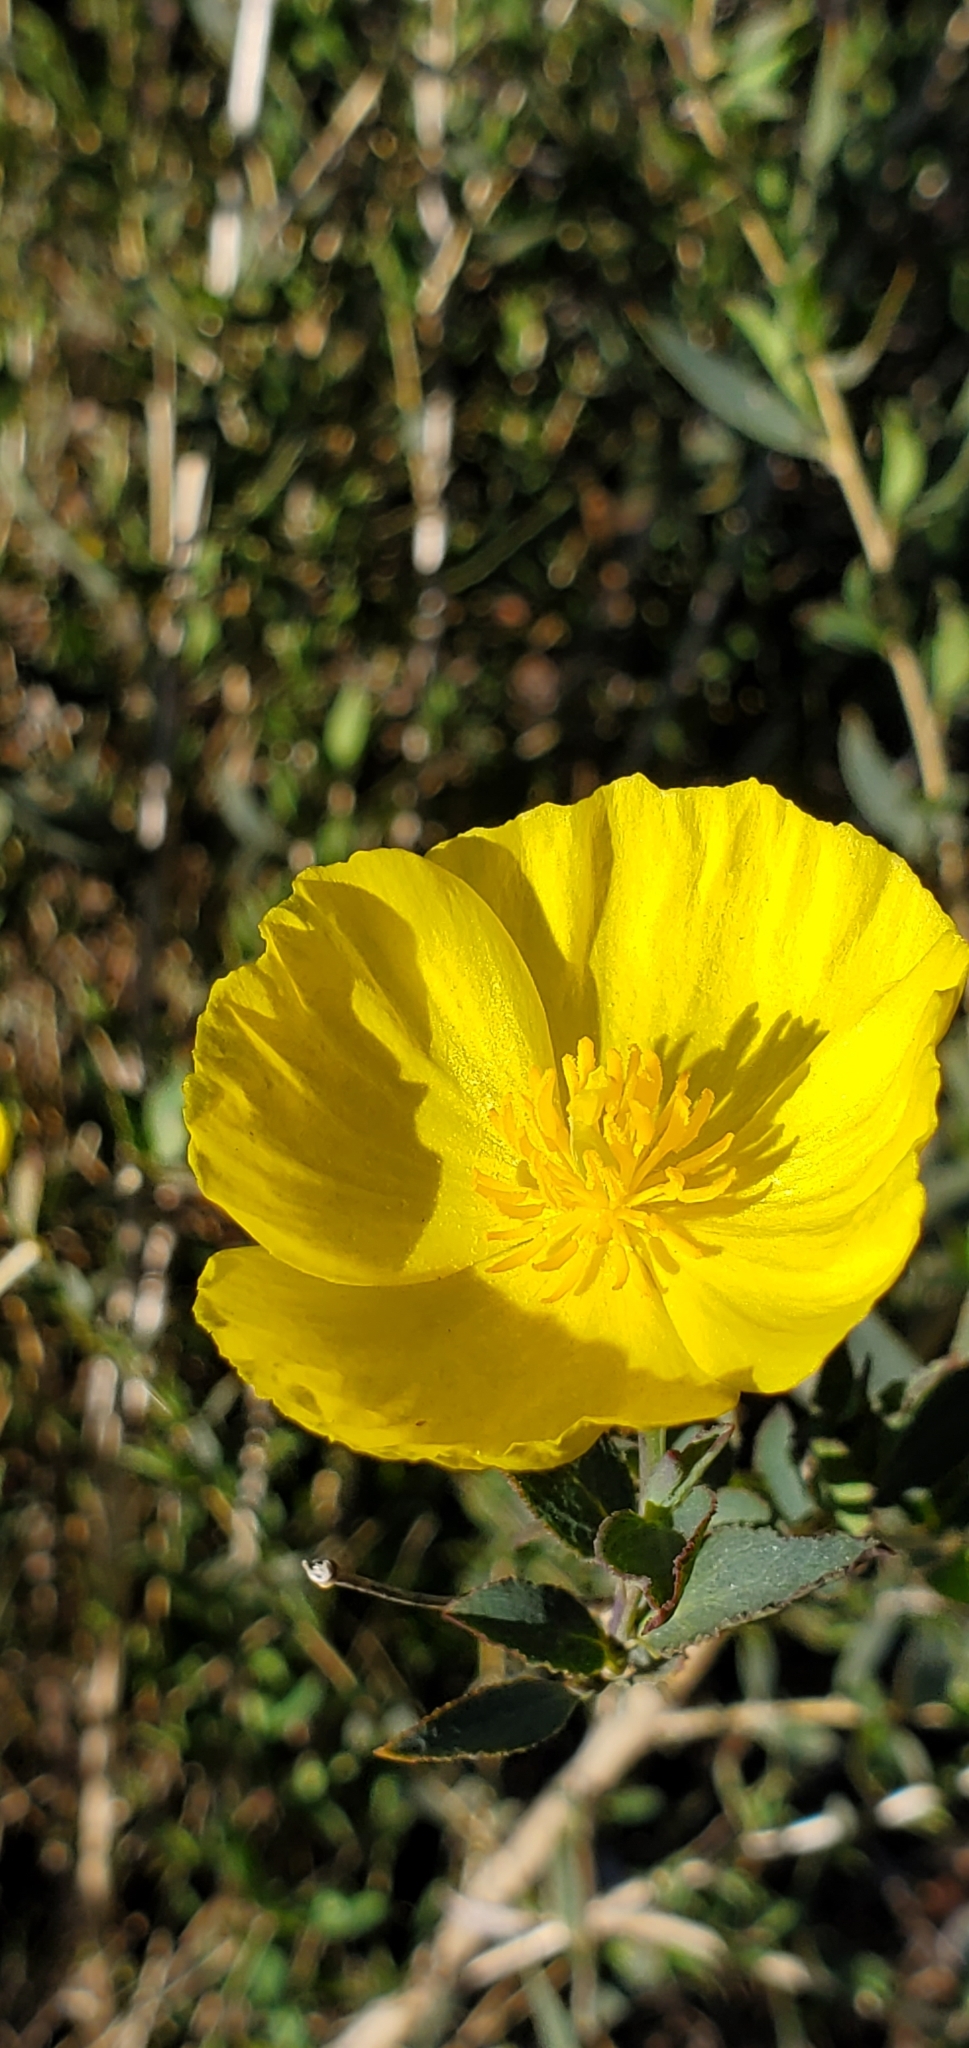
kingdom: Plantae
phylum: Tracheophyta
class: Magnoliopsida
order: Ranunculales
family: Papaveraceae
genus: Dendromecon
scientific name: Dendromecon rigida
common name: Tree poppy
